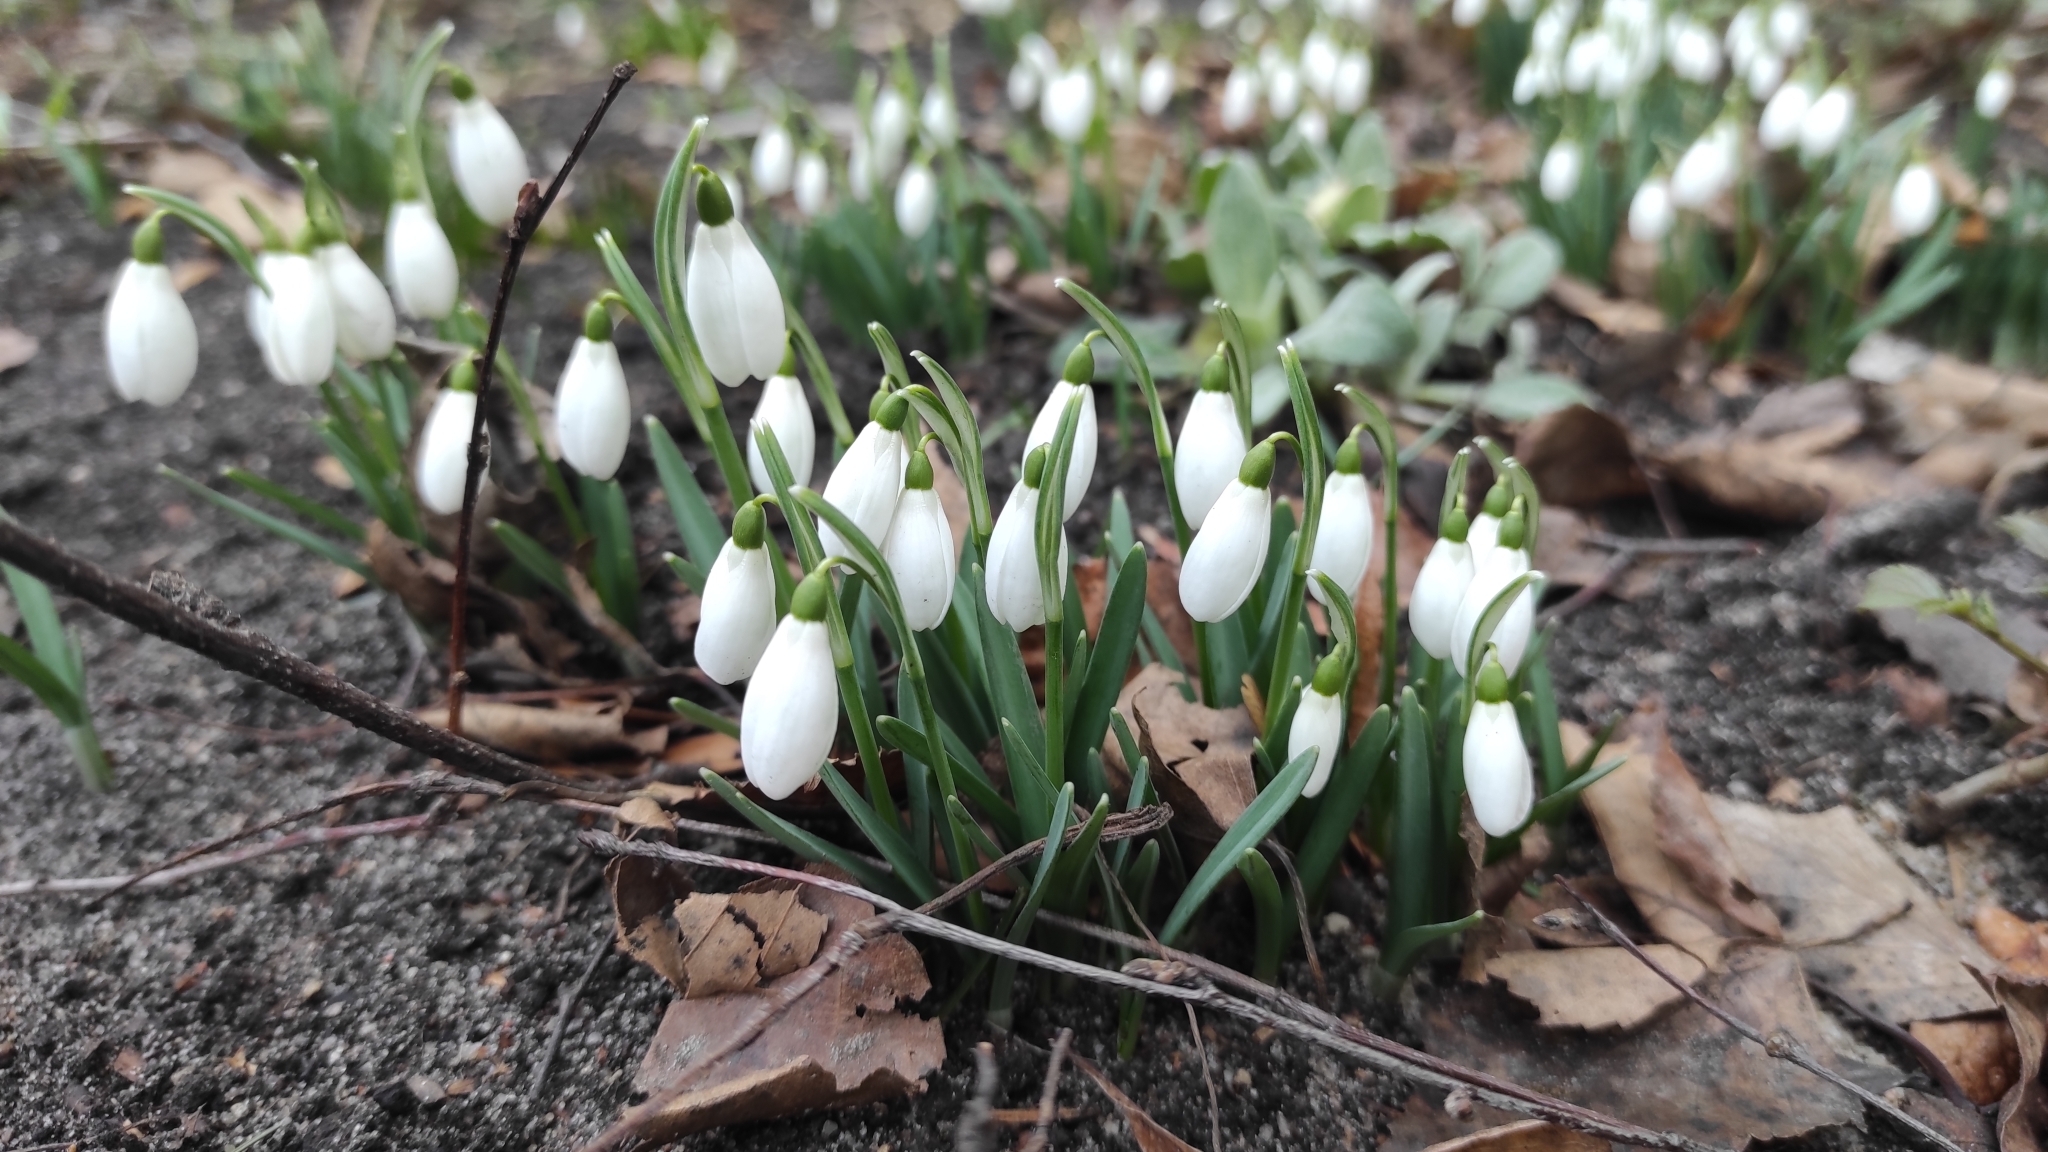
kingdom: Plantae
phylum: Tracheophyta
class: Liliopsida
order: Asparagales
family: Amaryllidaceae
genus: Galanthus
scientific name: Galanthus nivalis
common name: Snowdrop
